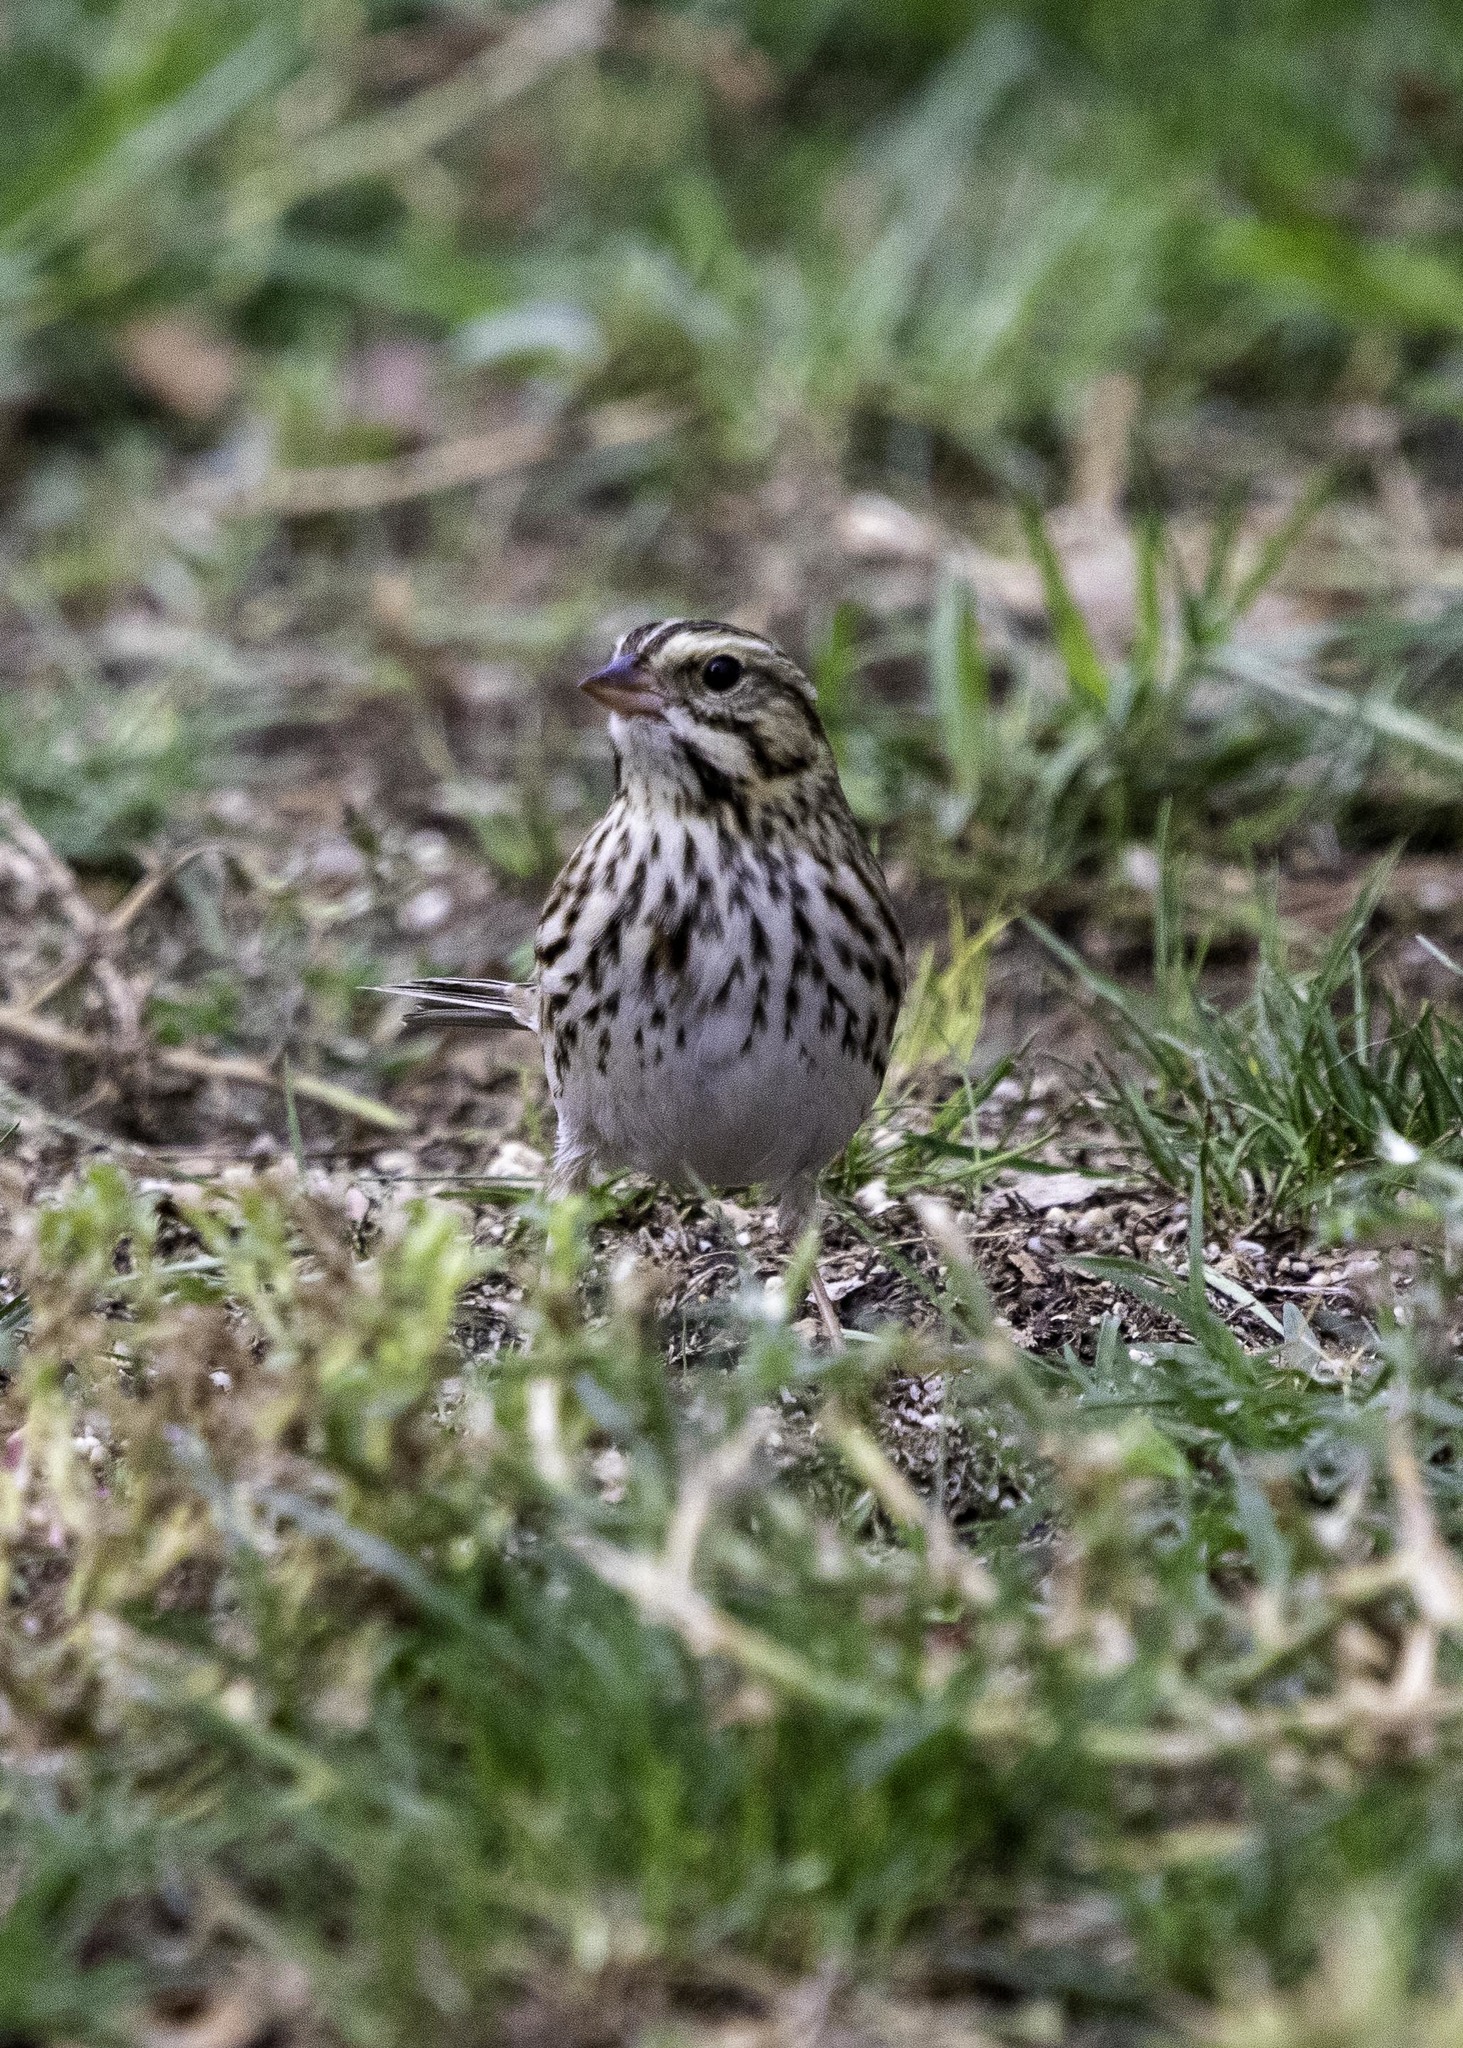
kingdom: Animalia
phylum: Chordata
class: Aves
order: Passeriformes
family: Passerellidae
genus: Passerculus
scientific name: Passerculus sandwichensis
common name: Savannah sparrow
